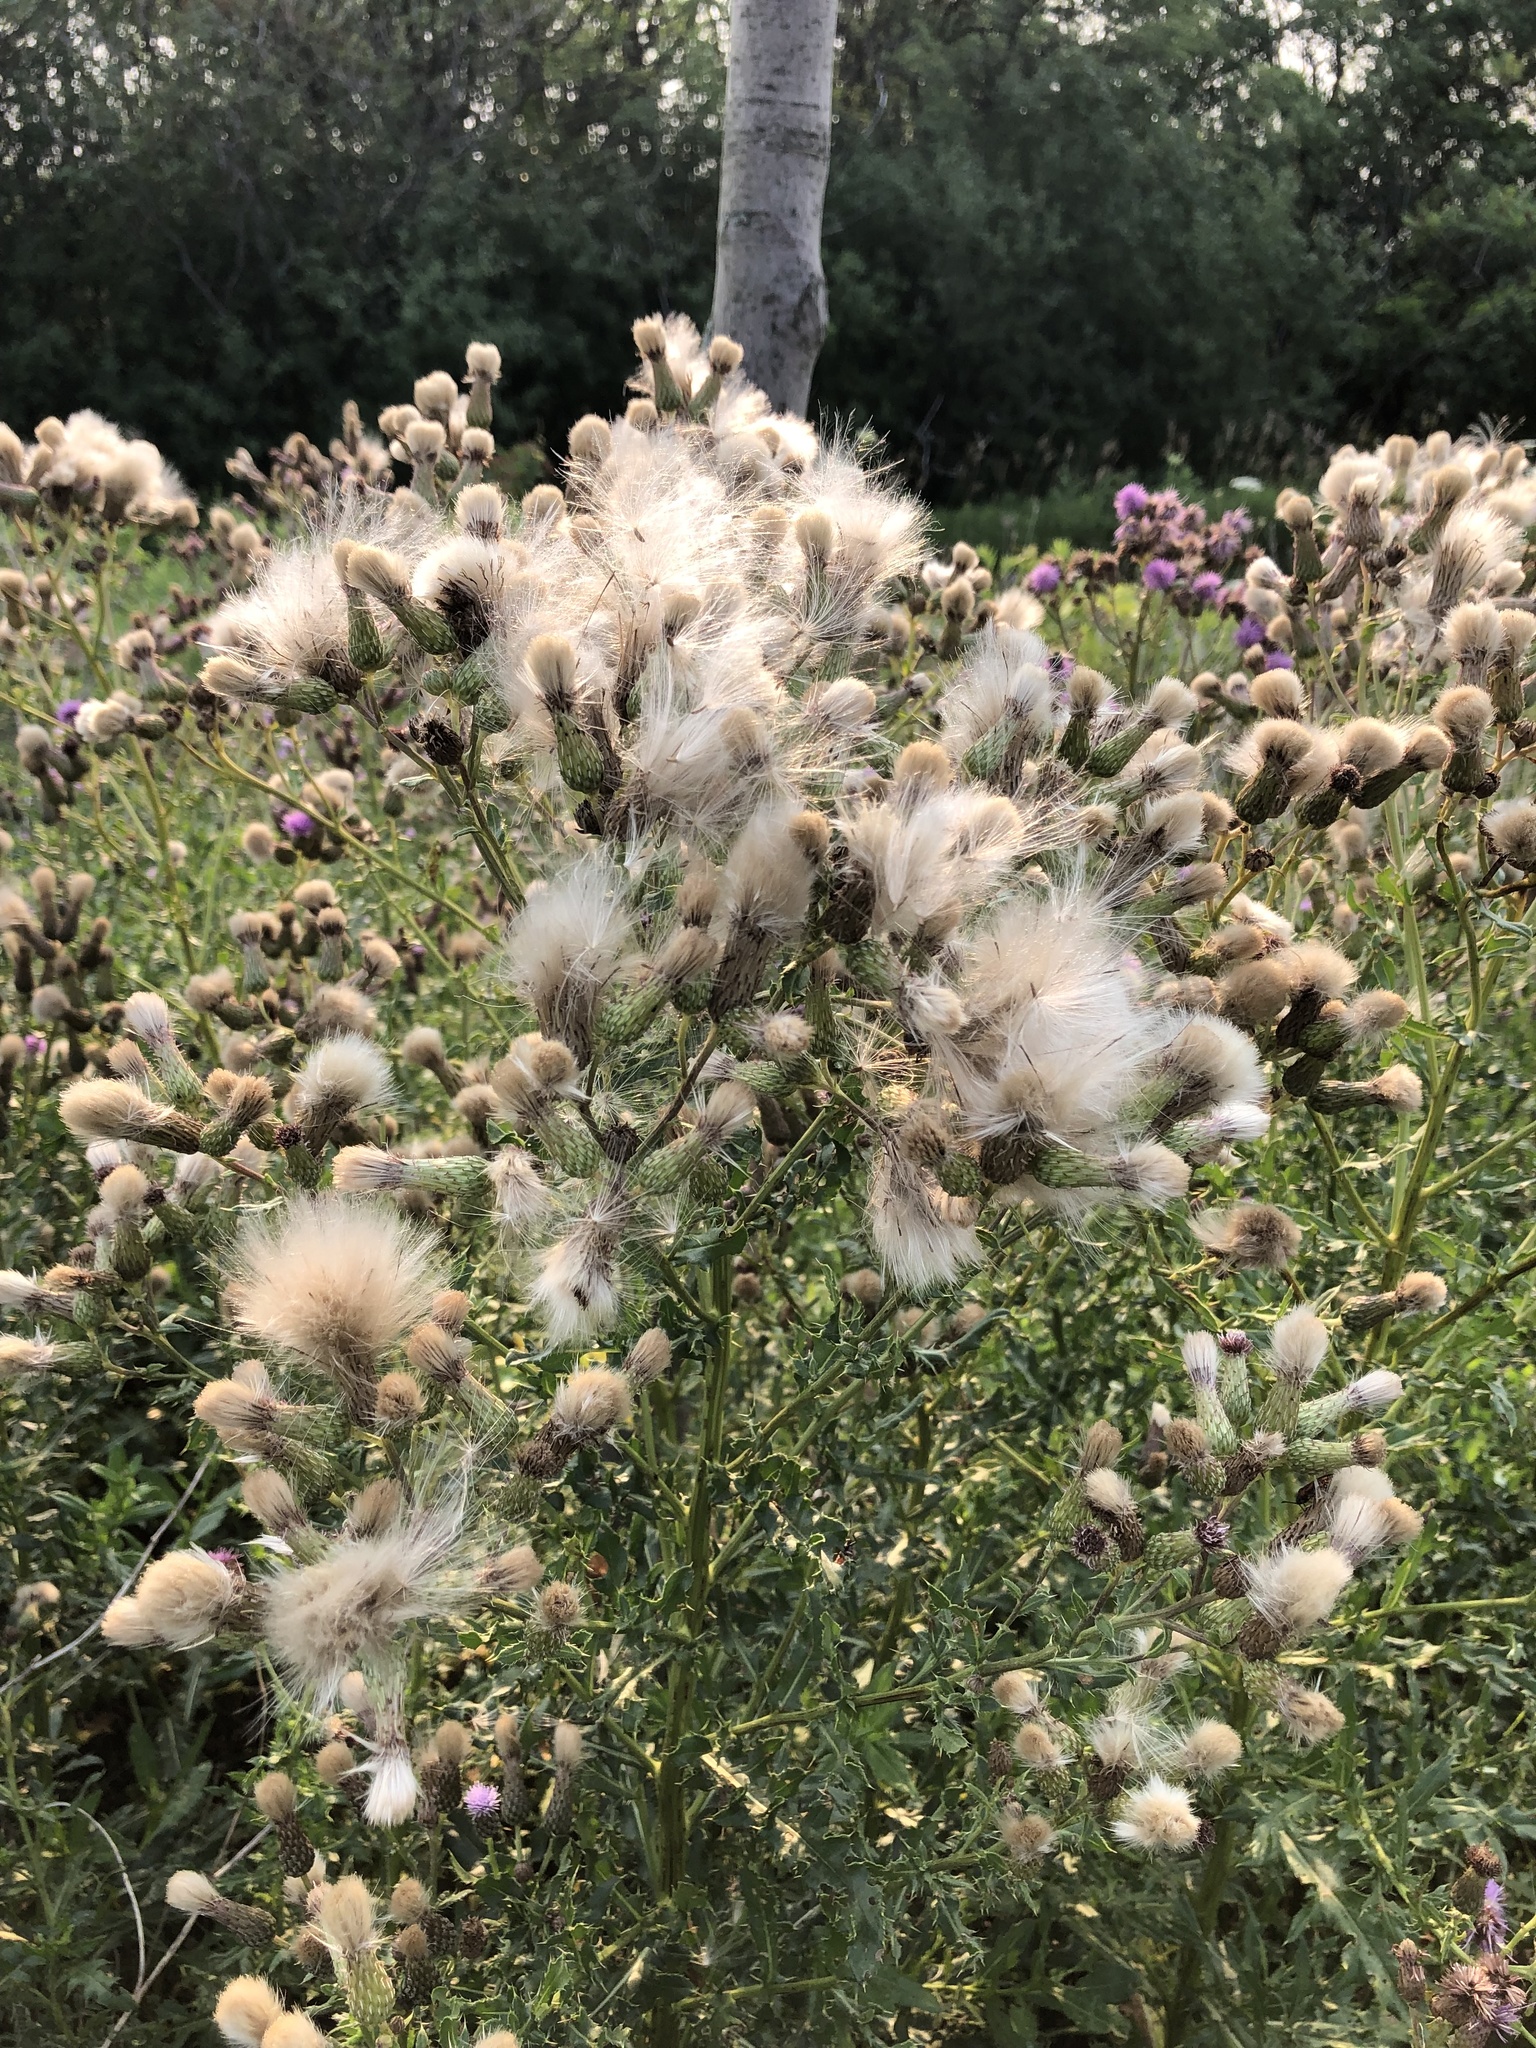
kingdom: Plantae
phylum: Tracheophyta
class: Magnoliopsida
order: Asterales
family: Asteraceae
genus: Cirsium
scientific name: Cirsium arvense
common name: Creeping thistle
